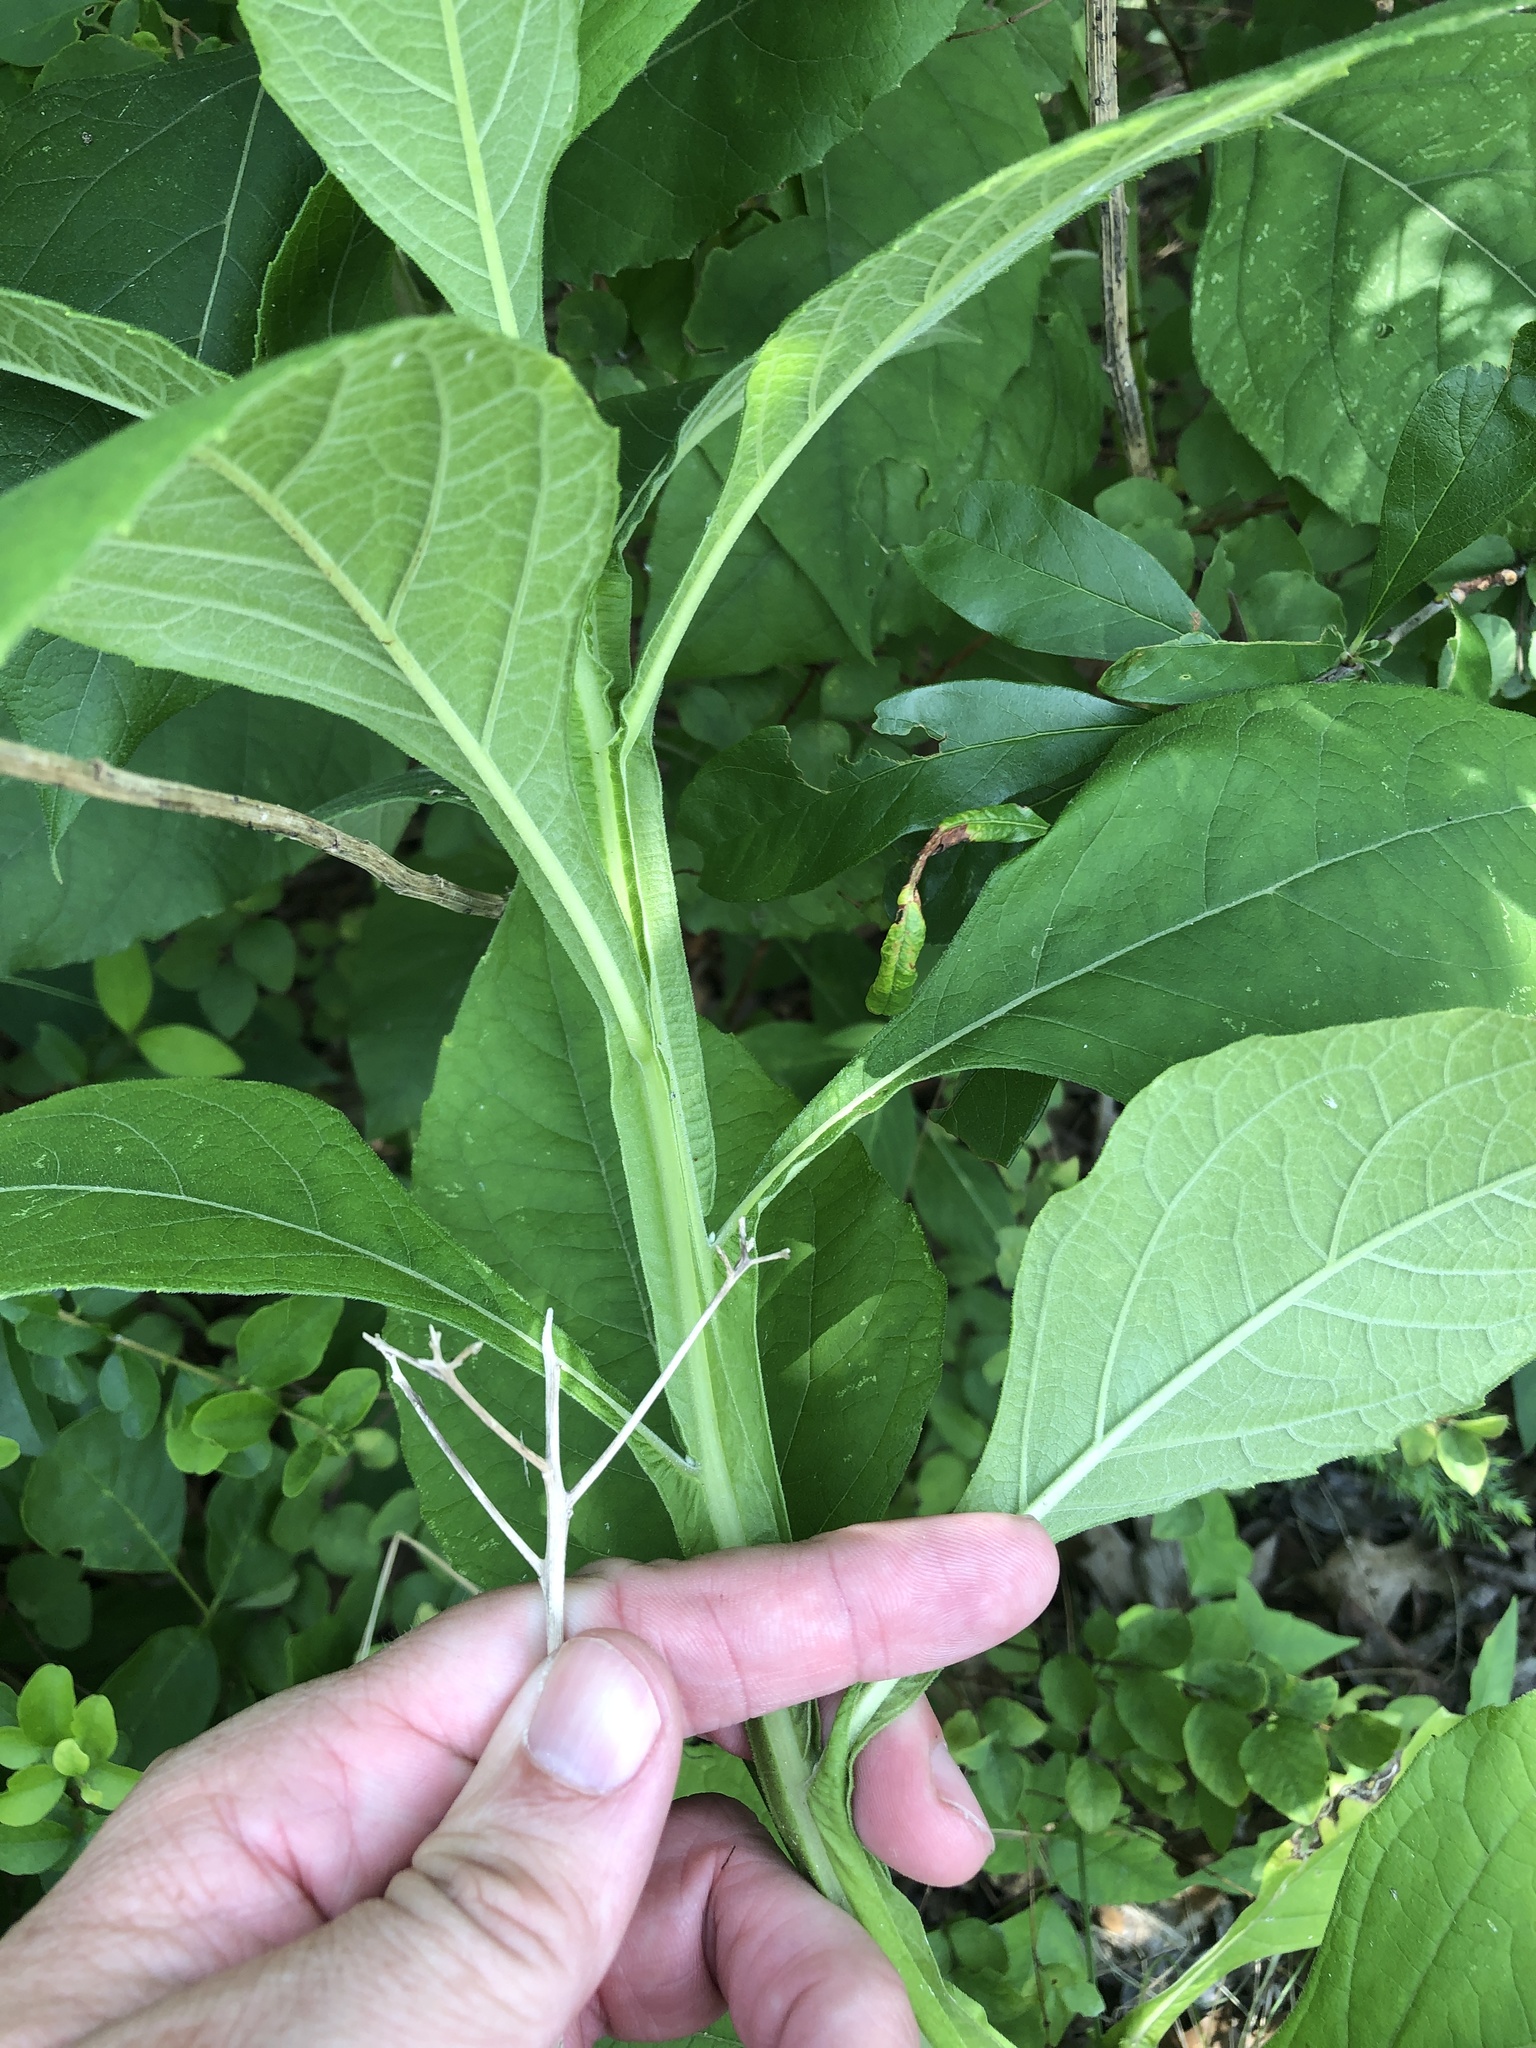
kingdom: Plantae
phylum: Tracheophyta
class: Magnoliopsida
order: Asterales
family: Asteraceae
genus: Verbesina
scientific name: Verbesina virginica
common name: Frostweed
